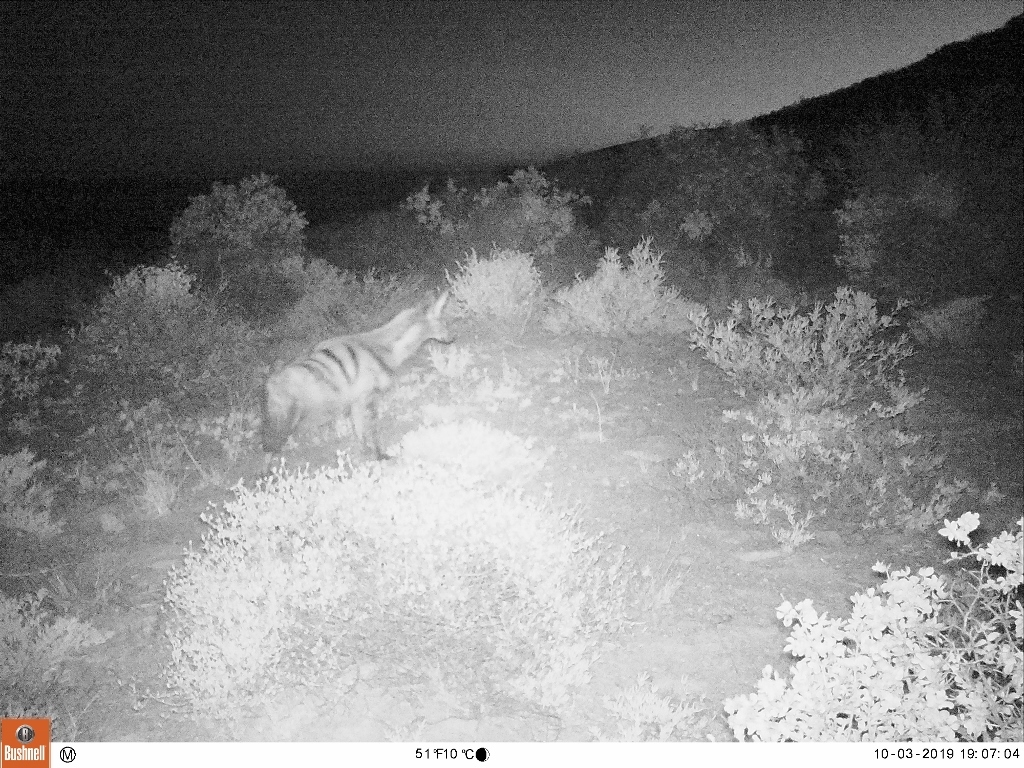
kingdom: Animalia
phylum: Chordata
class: Mammalia
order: Carnivora
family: Hyaenidae
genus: Proteles
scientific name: Proteles cristata
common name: Aardwolf
